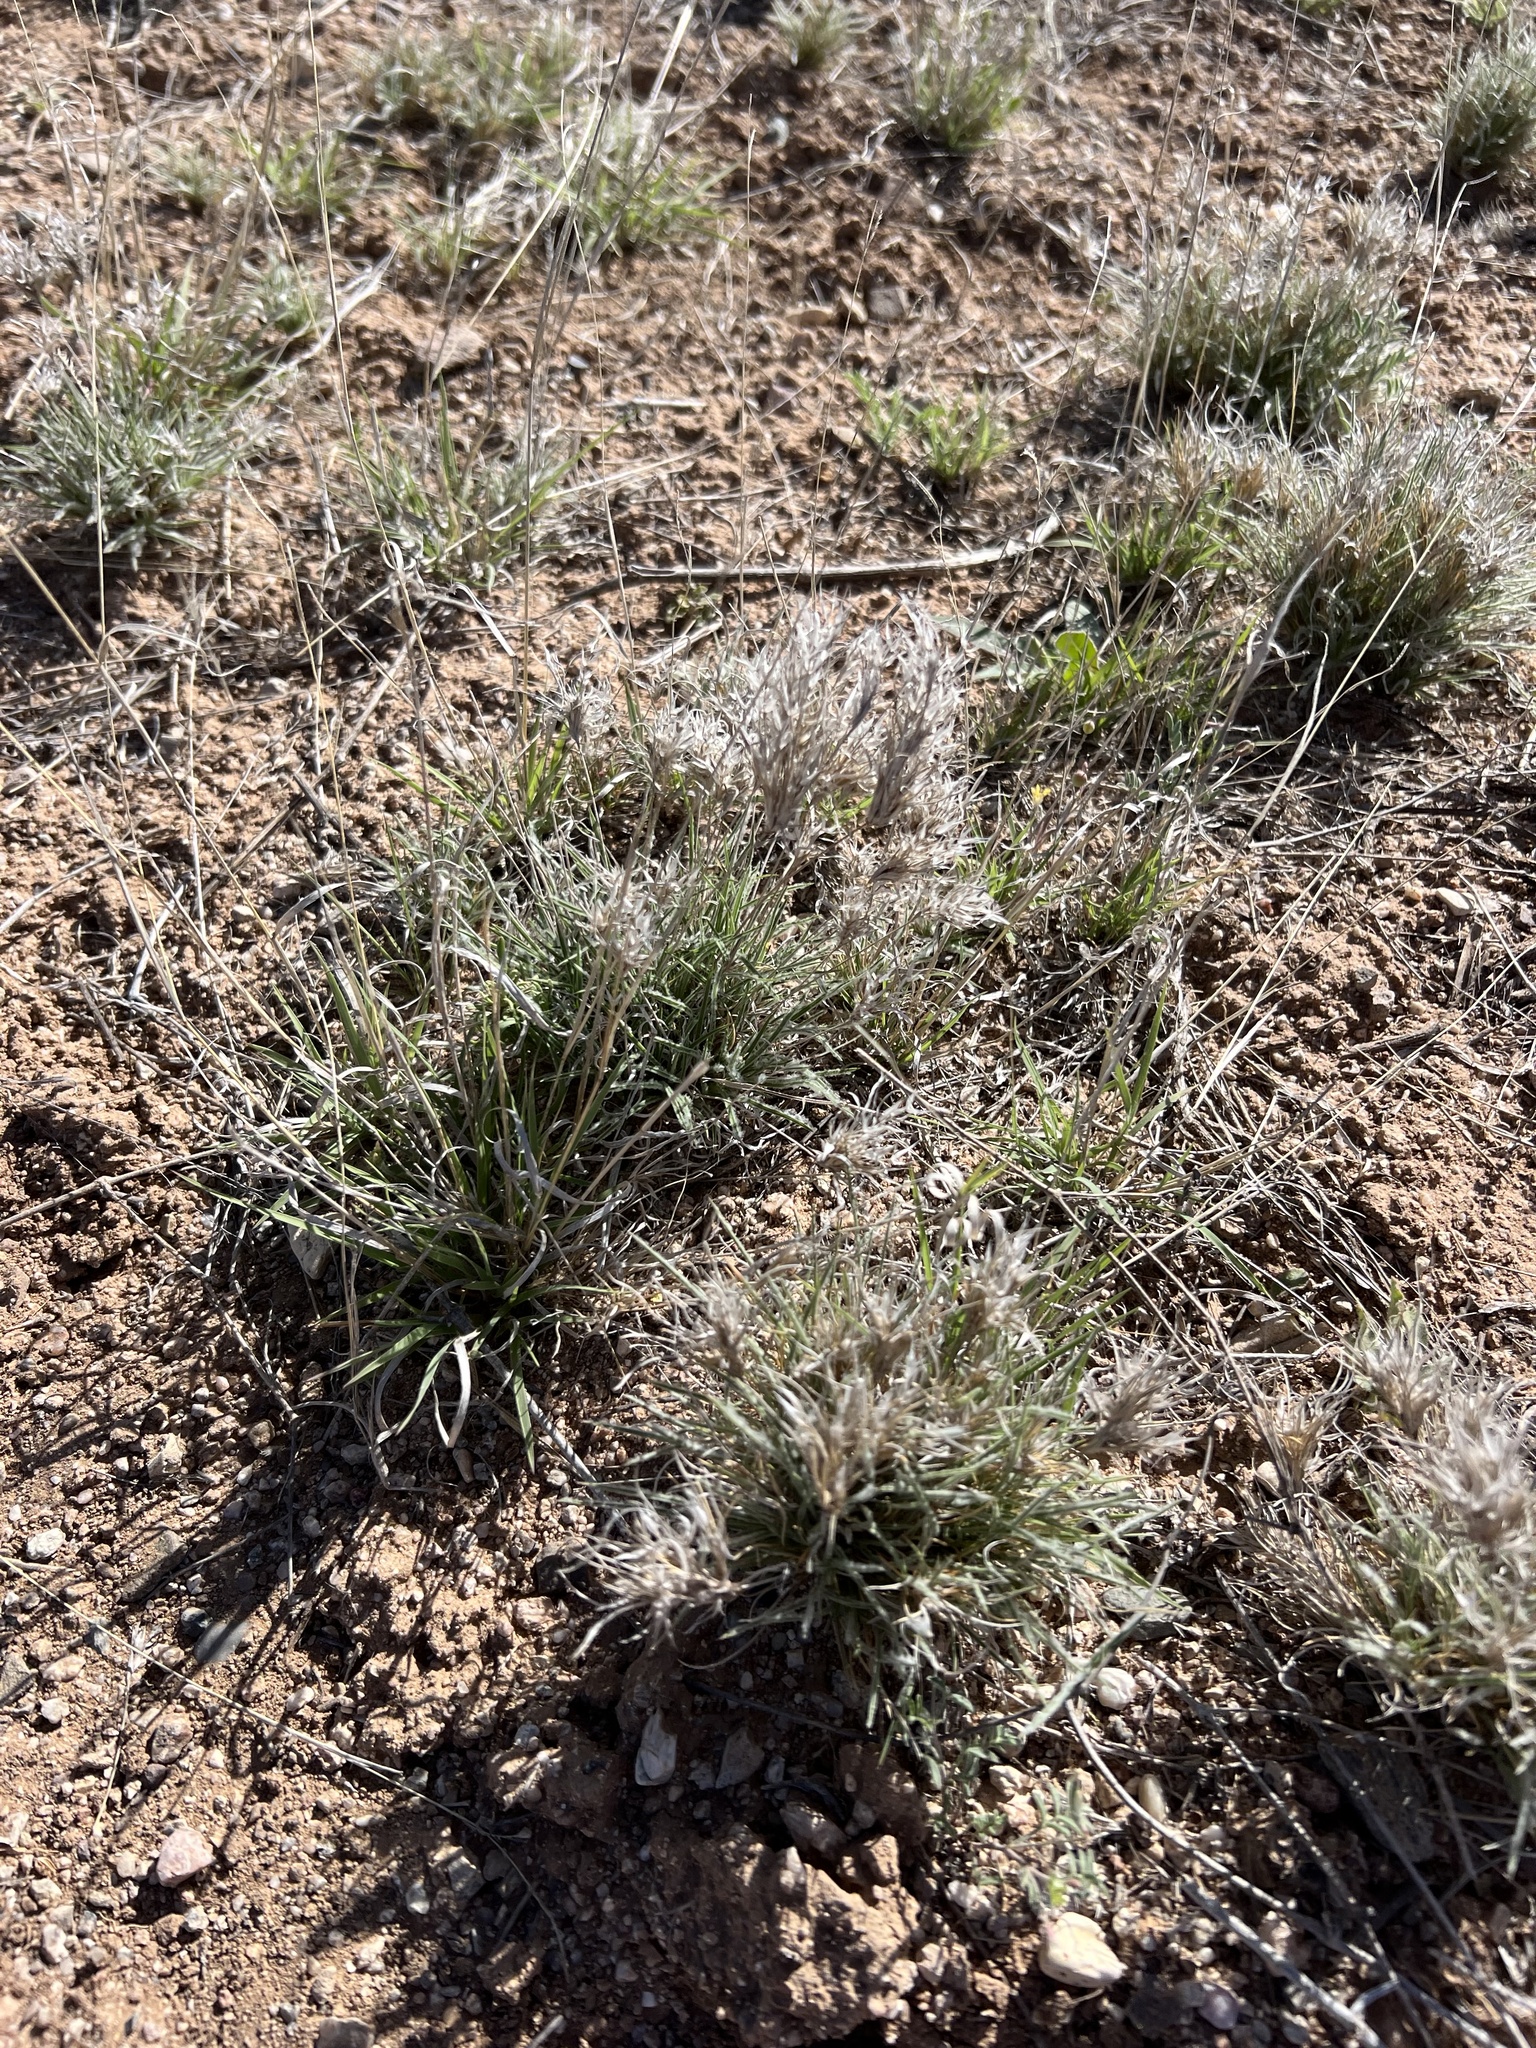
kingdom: Plantae
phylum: Tracheophyta
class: Liliopsida
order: Poales
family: Poaceae
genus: Dasyochloa
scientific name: Dasyochloa pulchella
